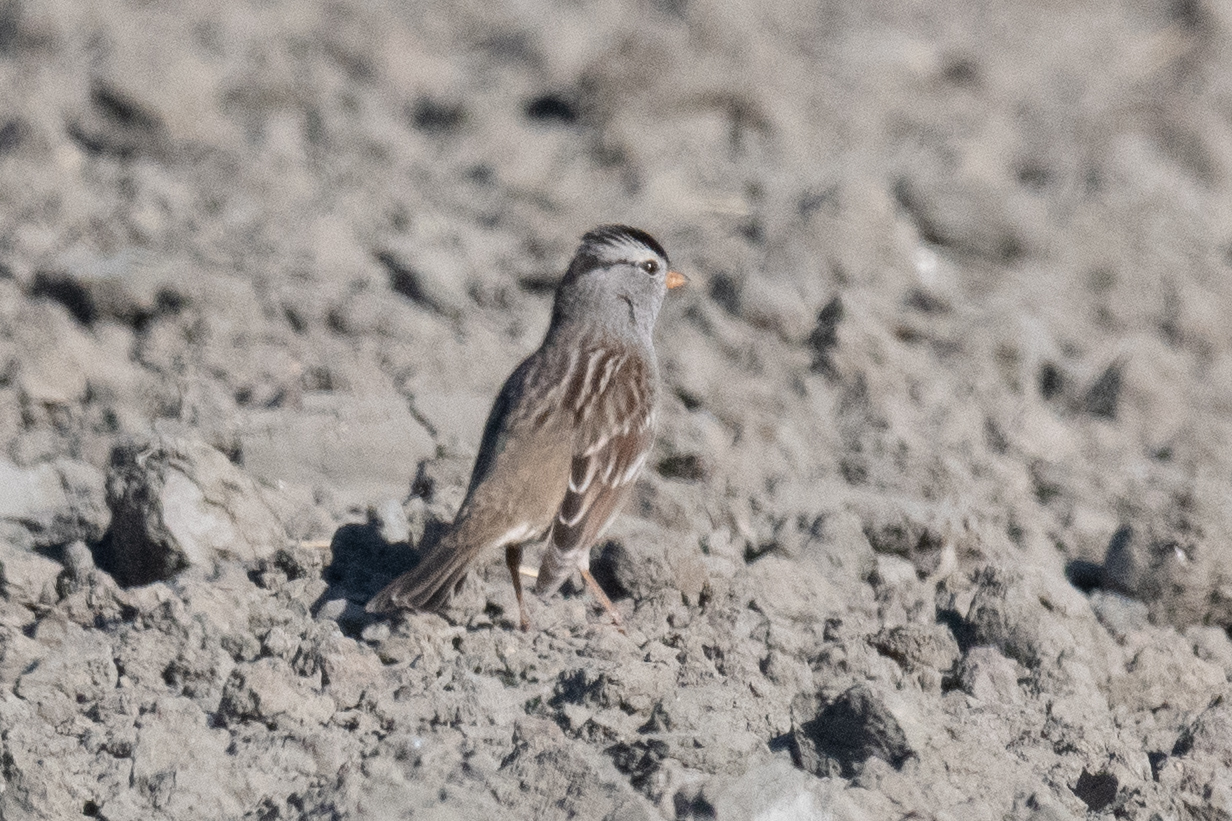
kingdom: Animalia
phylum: Chordata
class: Aves
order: Passeriformes
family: Passerellidae
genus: Zonotrichia
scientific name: Zonotrichia leucophrys
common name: White-crowned sparrow
